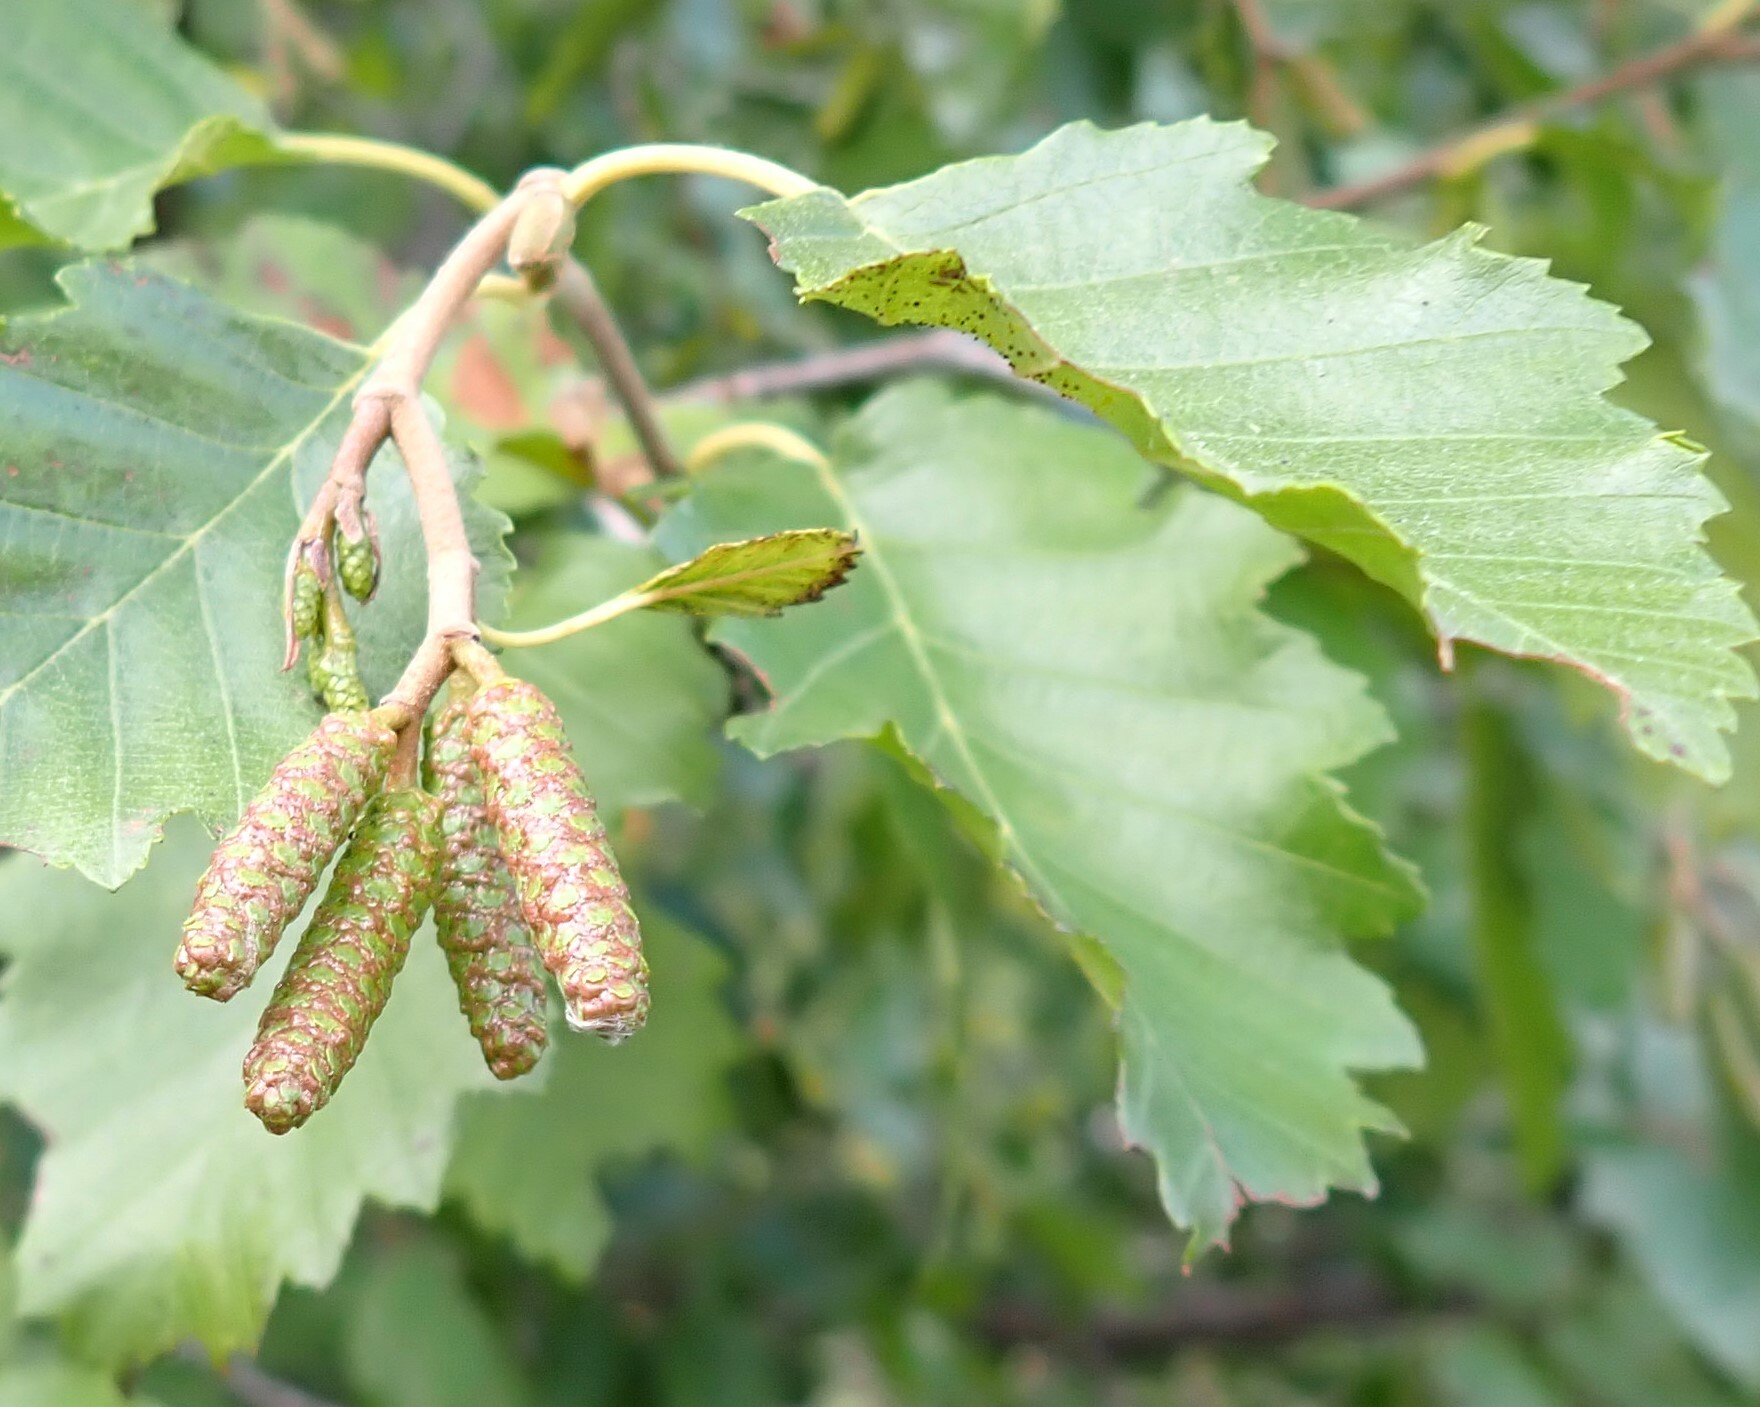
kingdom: Plantae
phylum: Tracheophyta
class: Magnoliopsida
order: Fagales
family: Betulaceae
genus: Alnus
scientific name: Alnus alnobetula
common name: Green alder
